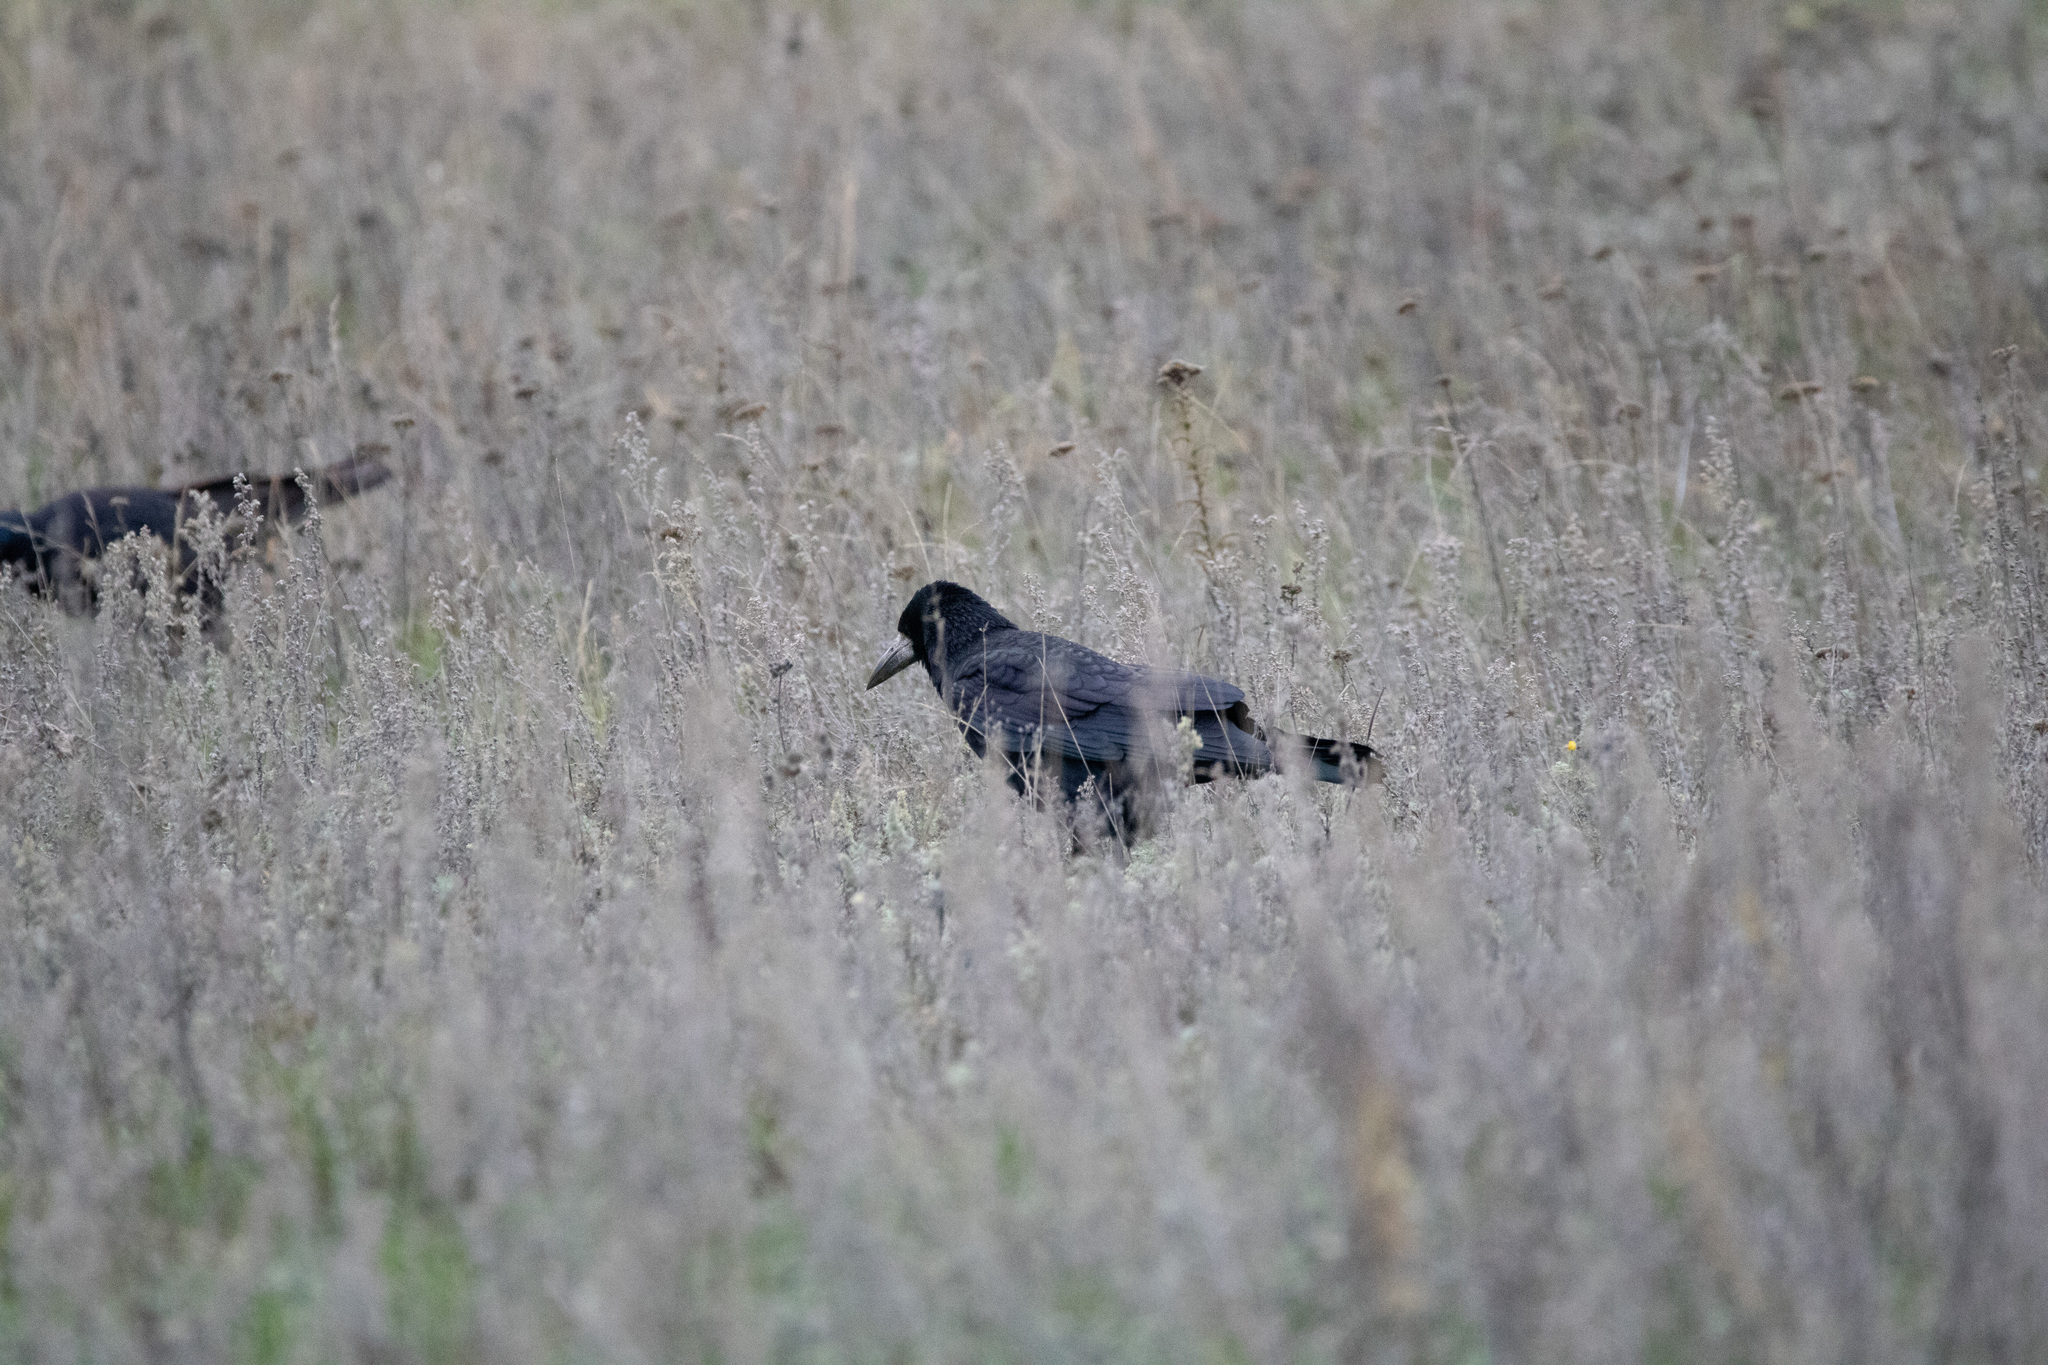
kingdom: Animalia
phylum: Chordata
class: Aves
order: Passeriformes
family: Corvidae
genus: Corvus
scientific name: Corvus frugilegus
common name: Rook
